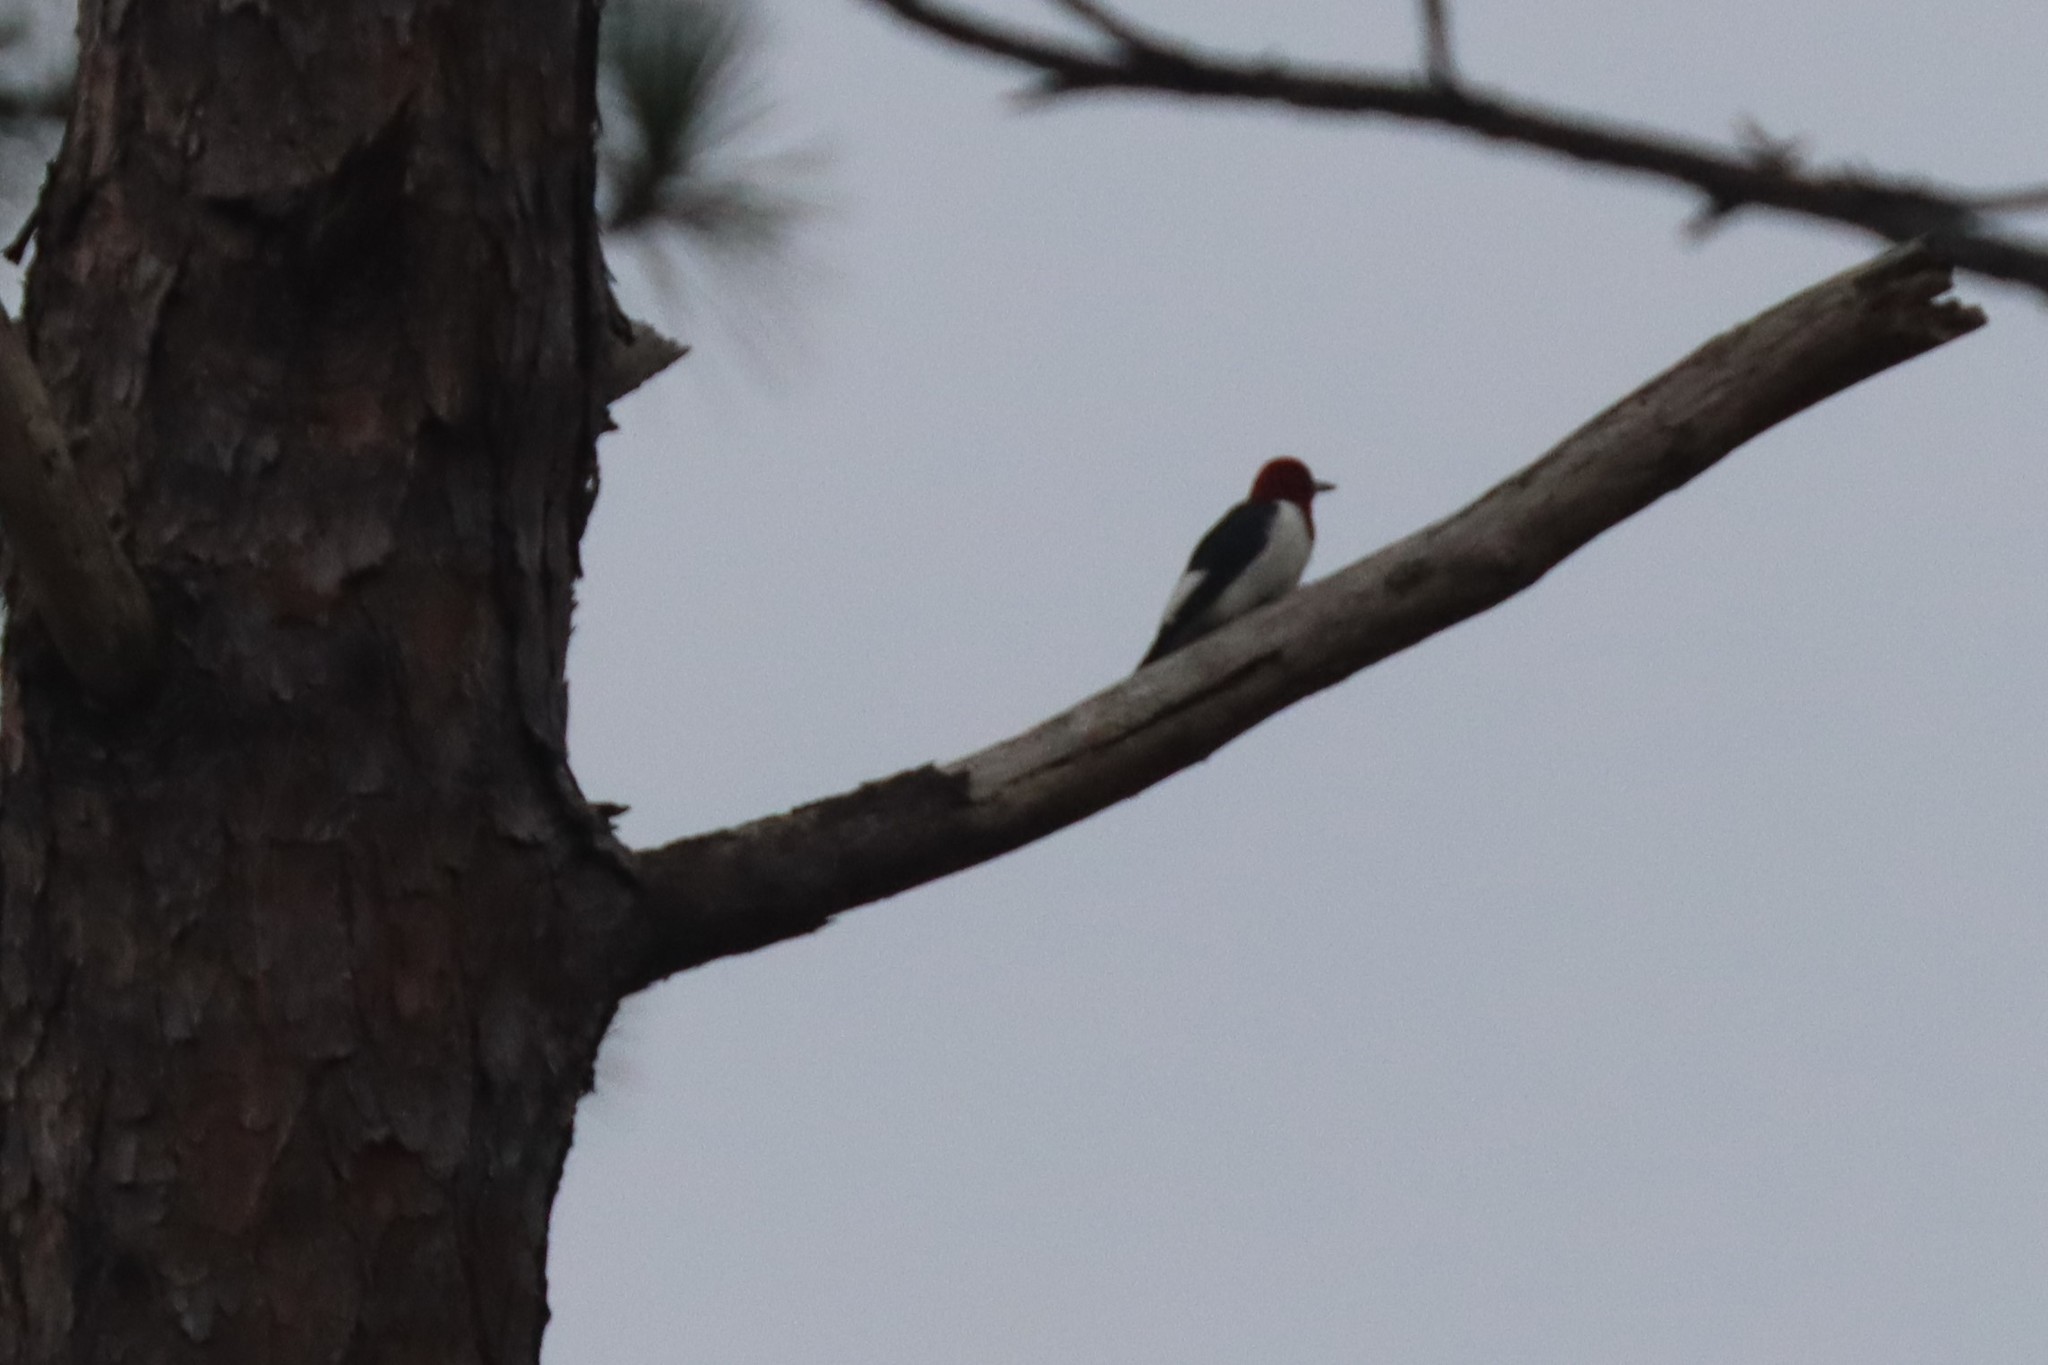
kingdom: Animalia
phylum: Chordata
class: Aves
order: Piciformes
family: Picidae
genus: Melanerpes
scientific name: Melanerpes erythrocephalus
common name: Red-headed woodpecker
